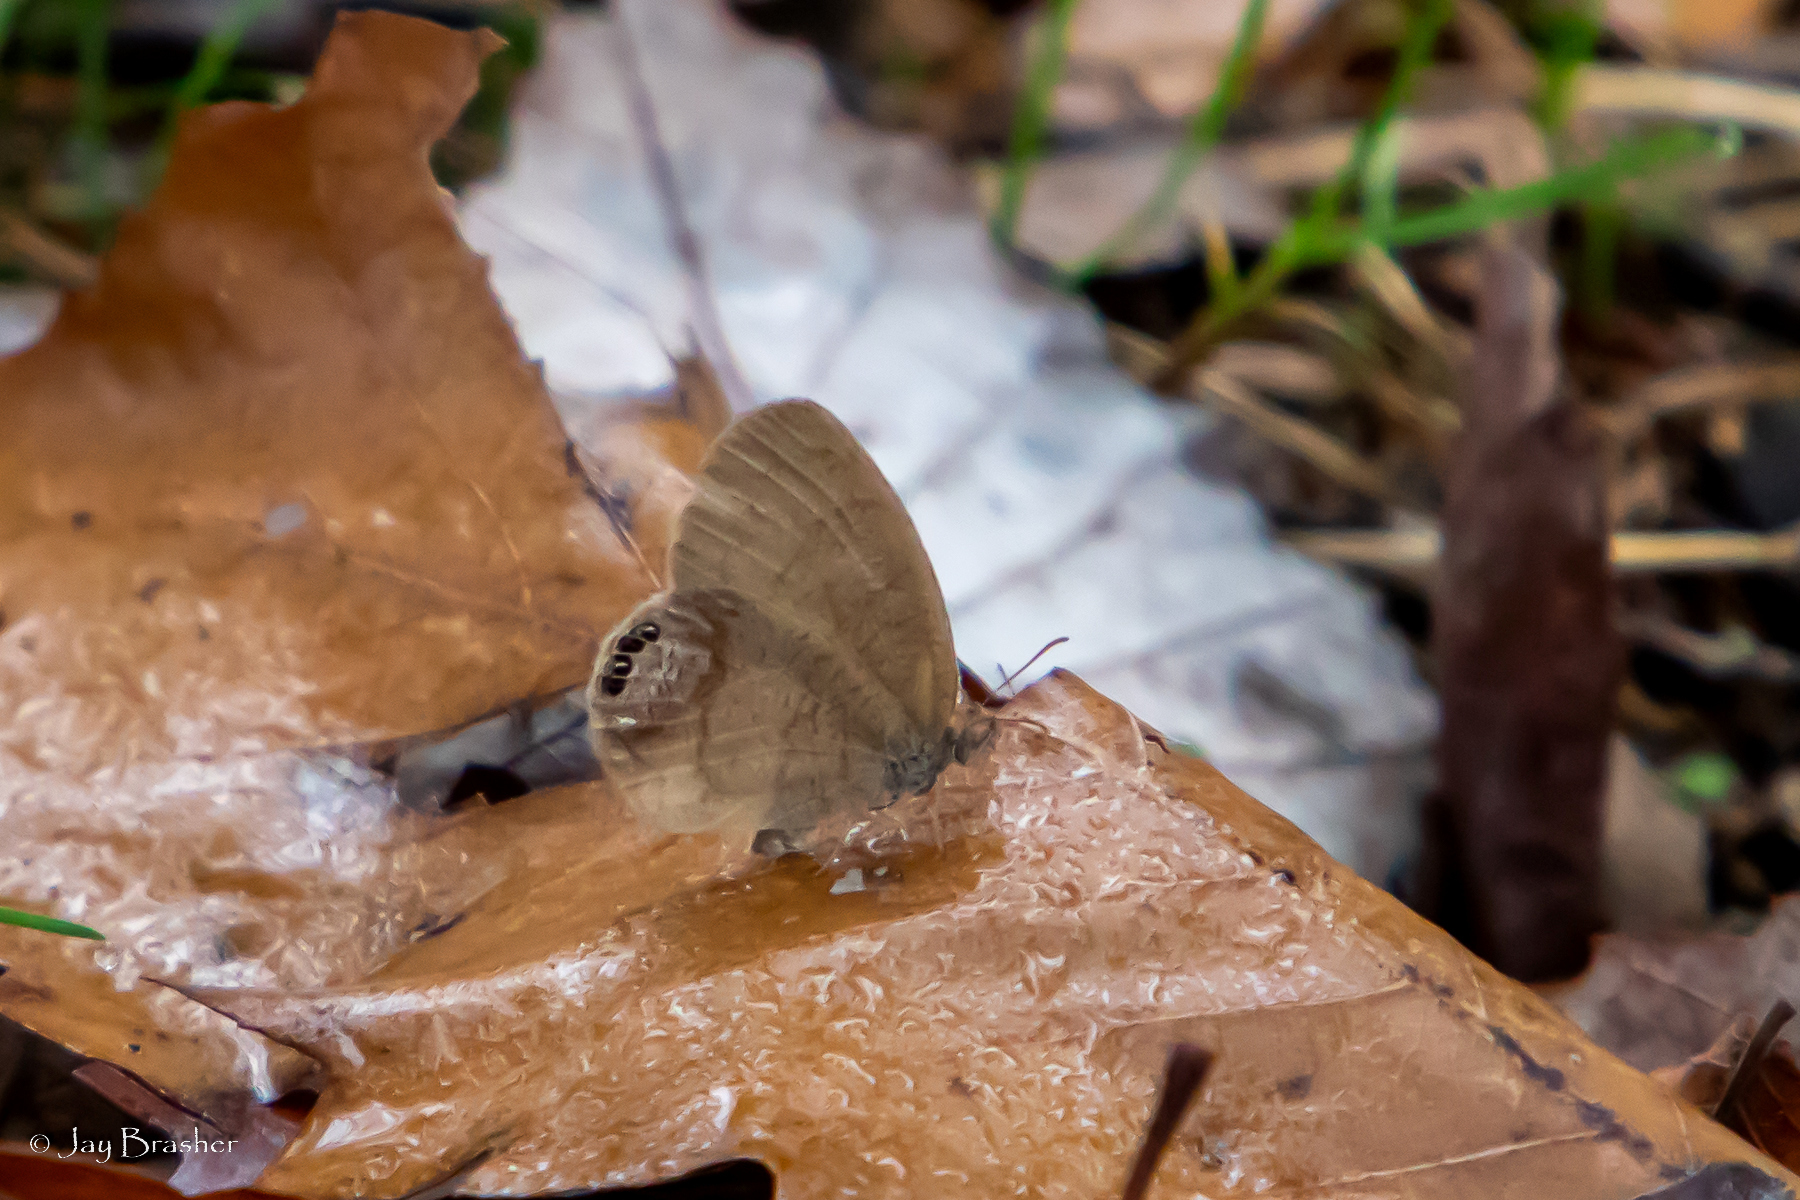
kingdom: Animalia
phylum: Arthropoda
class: Insecta
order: Lepidoptera
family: Nymphalidae
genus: Euptychia
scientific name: Euptychia cornelius
